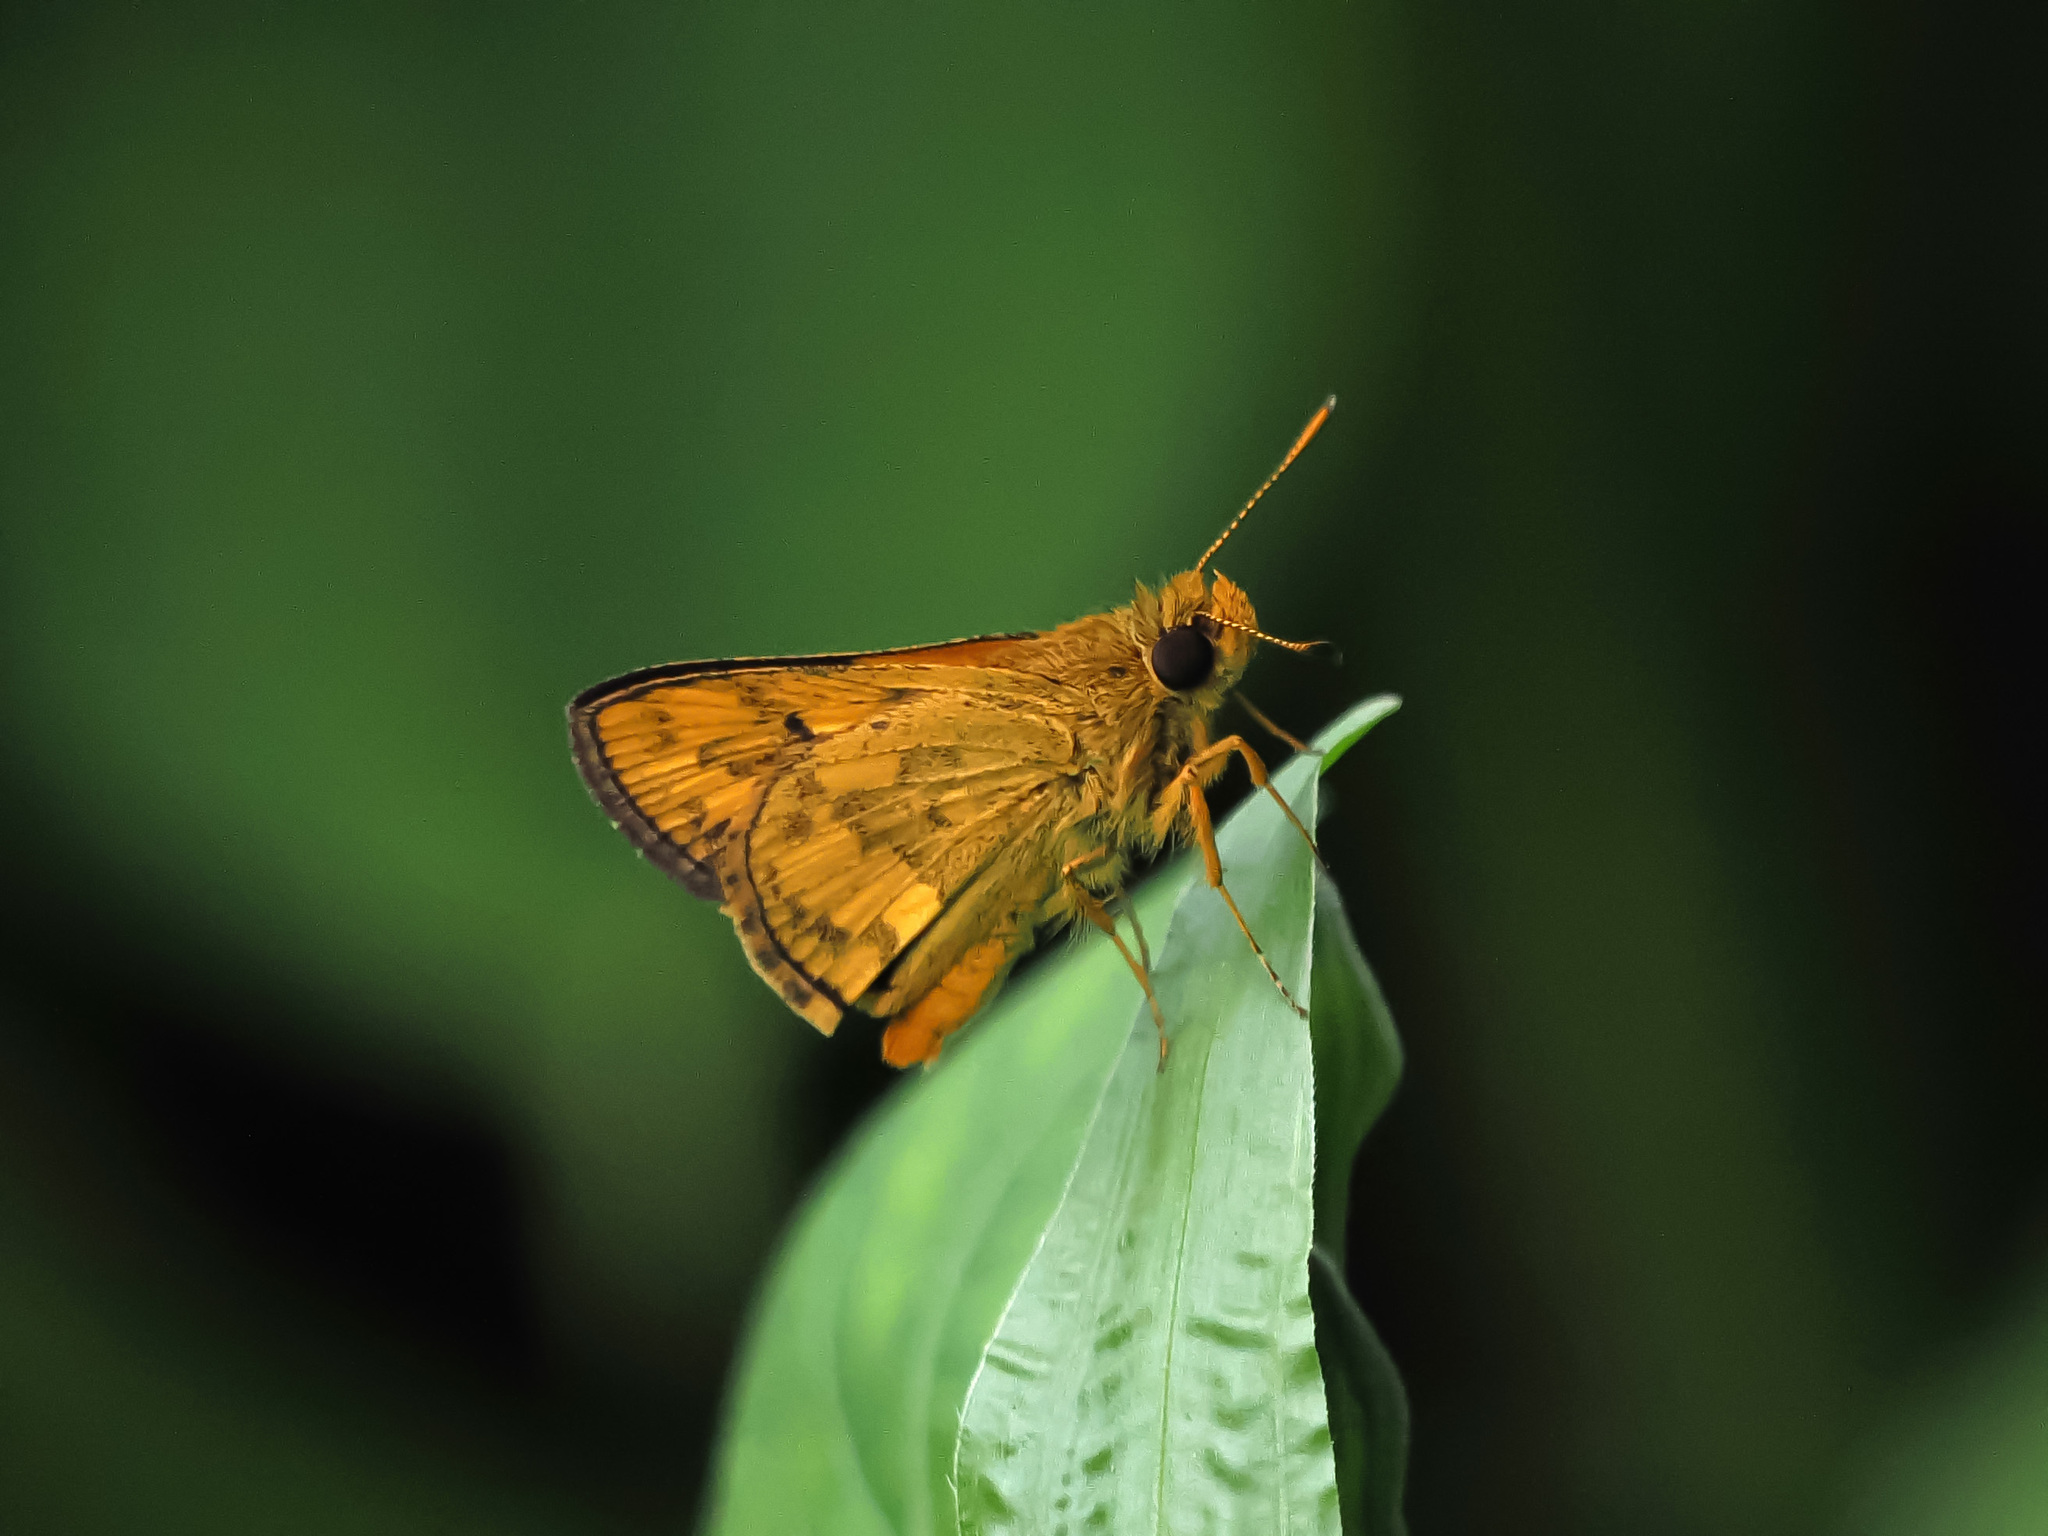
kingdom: Animalia
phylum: Arthropoda
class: Insecta
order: Lepidoptera
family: Hesperiidae
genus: Potanthus
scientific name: Potanthus omaha
